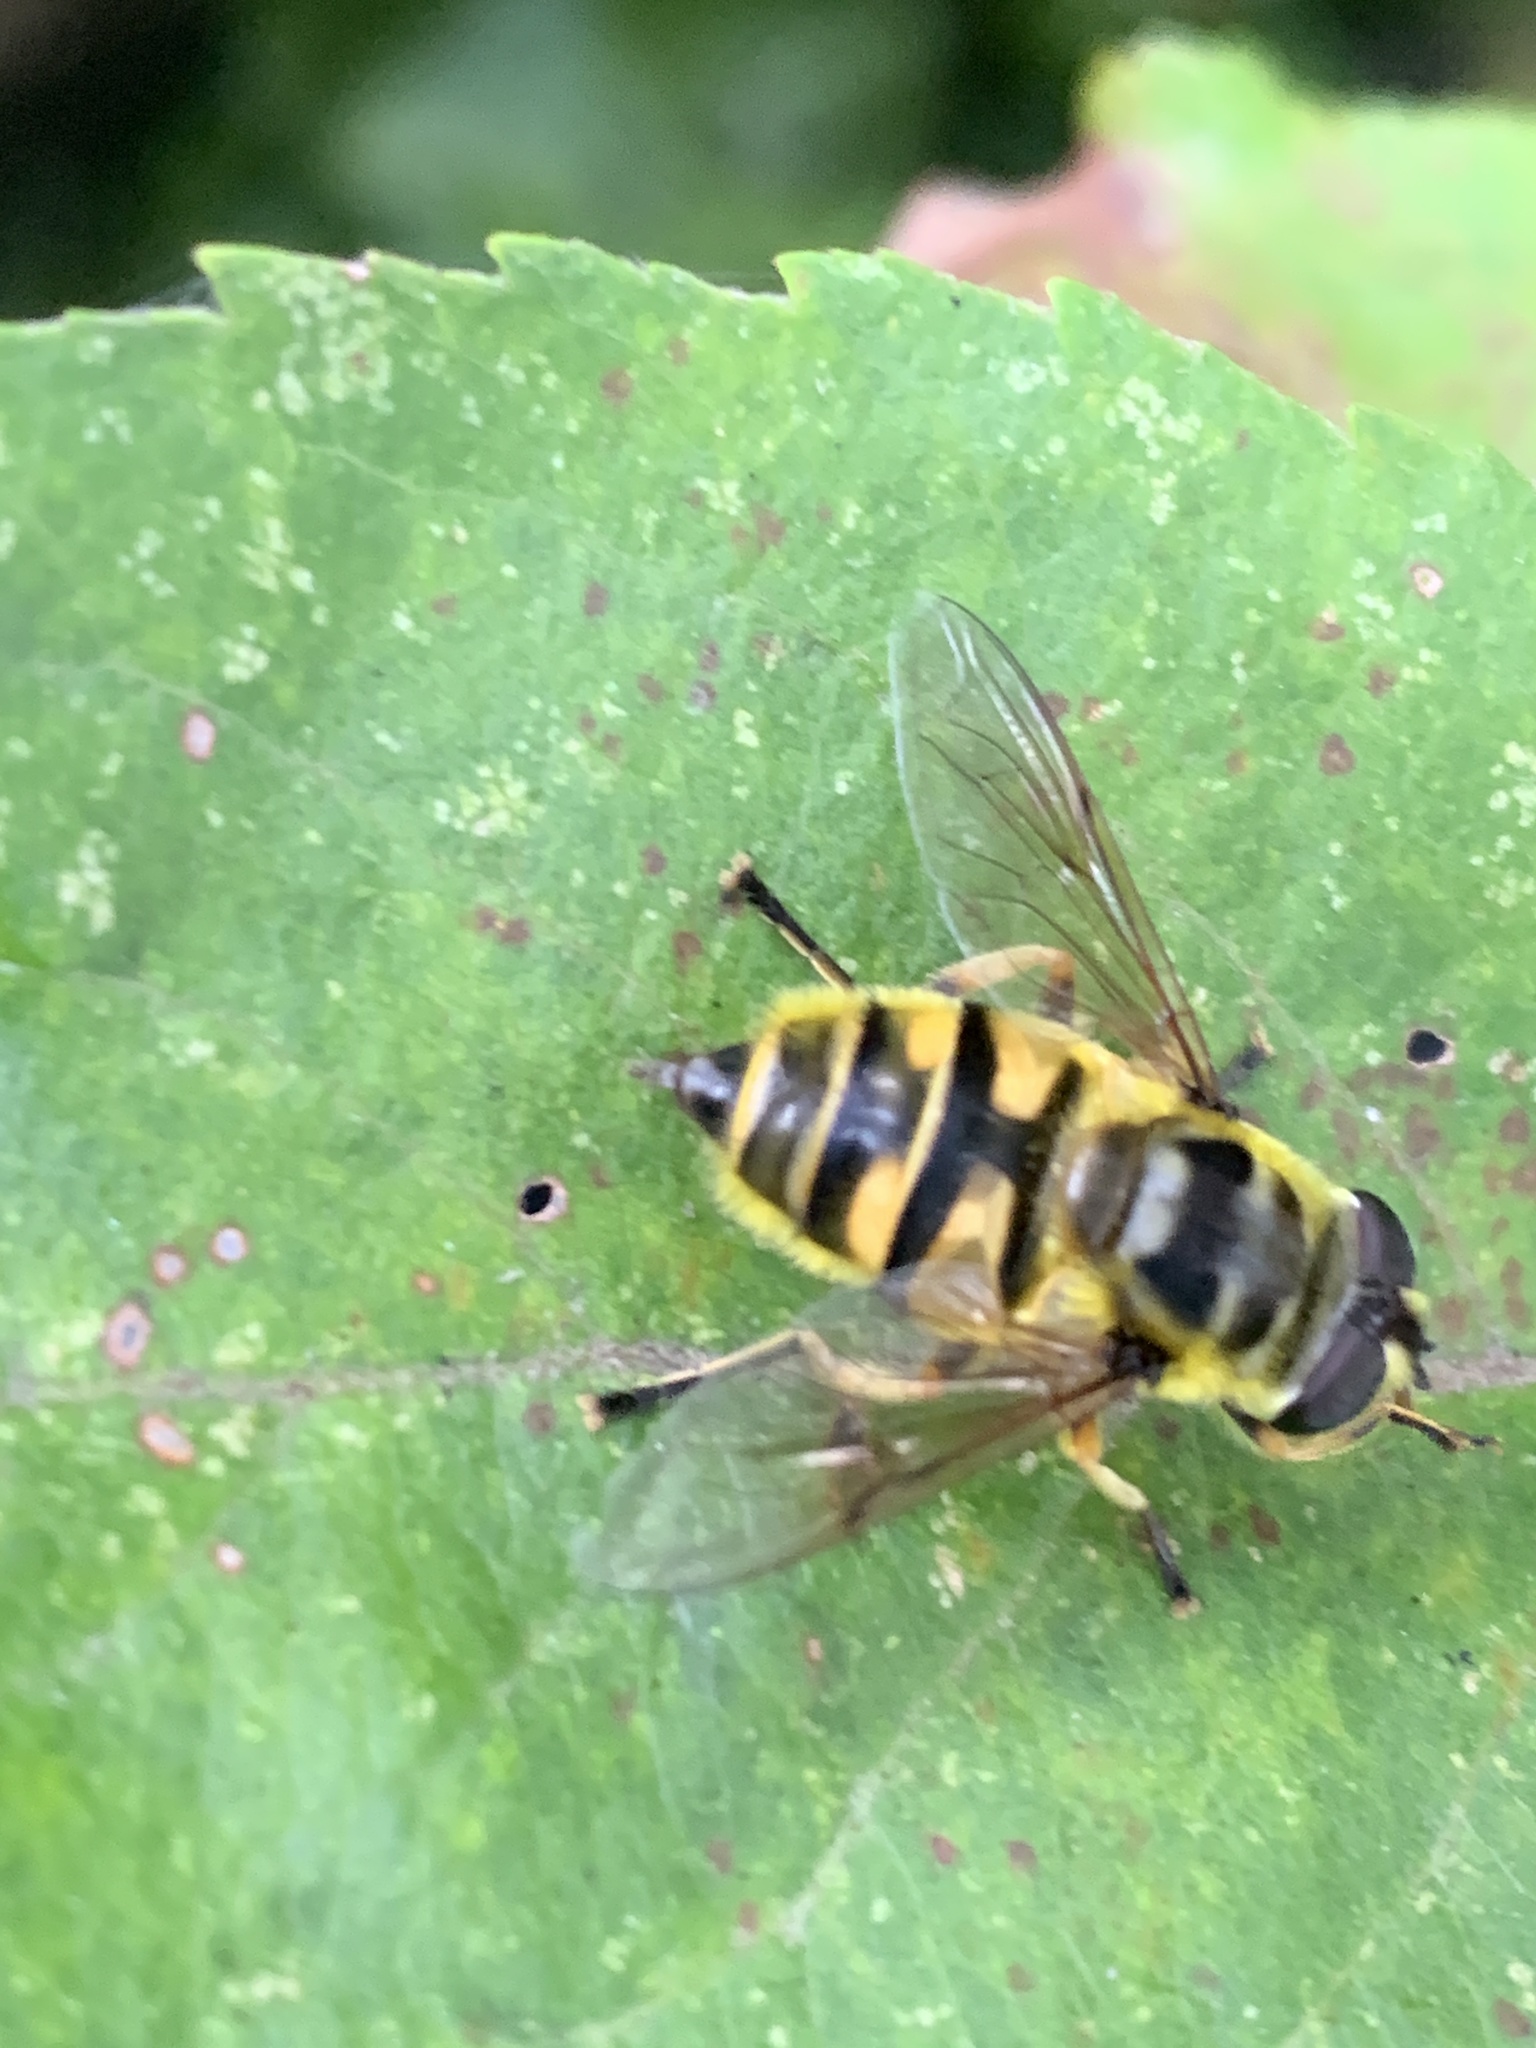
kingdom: Animalia
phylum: Arthropoda
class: Insecta
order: Diptera
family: Syrphidae
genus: Myathropa
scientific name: Myathropa florea
